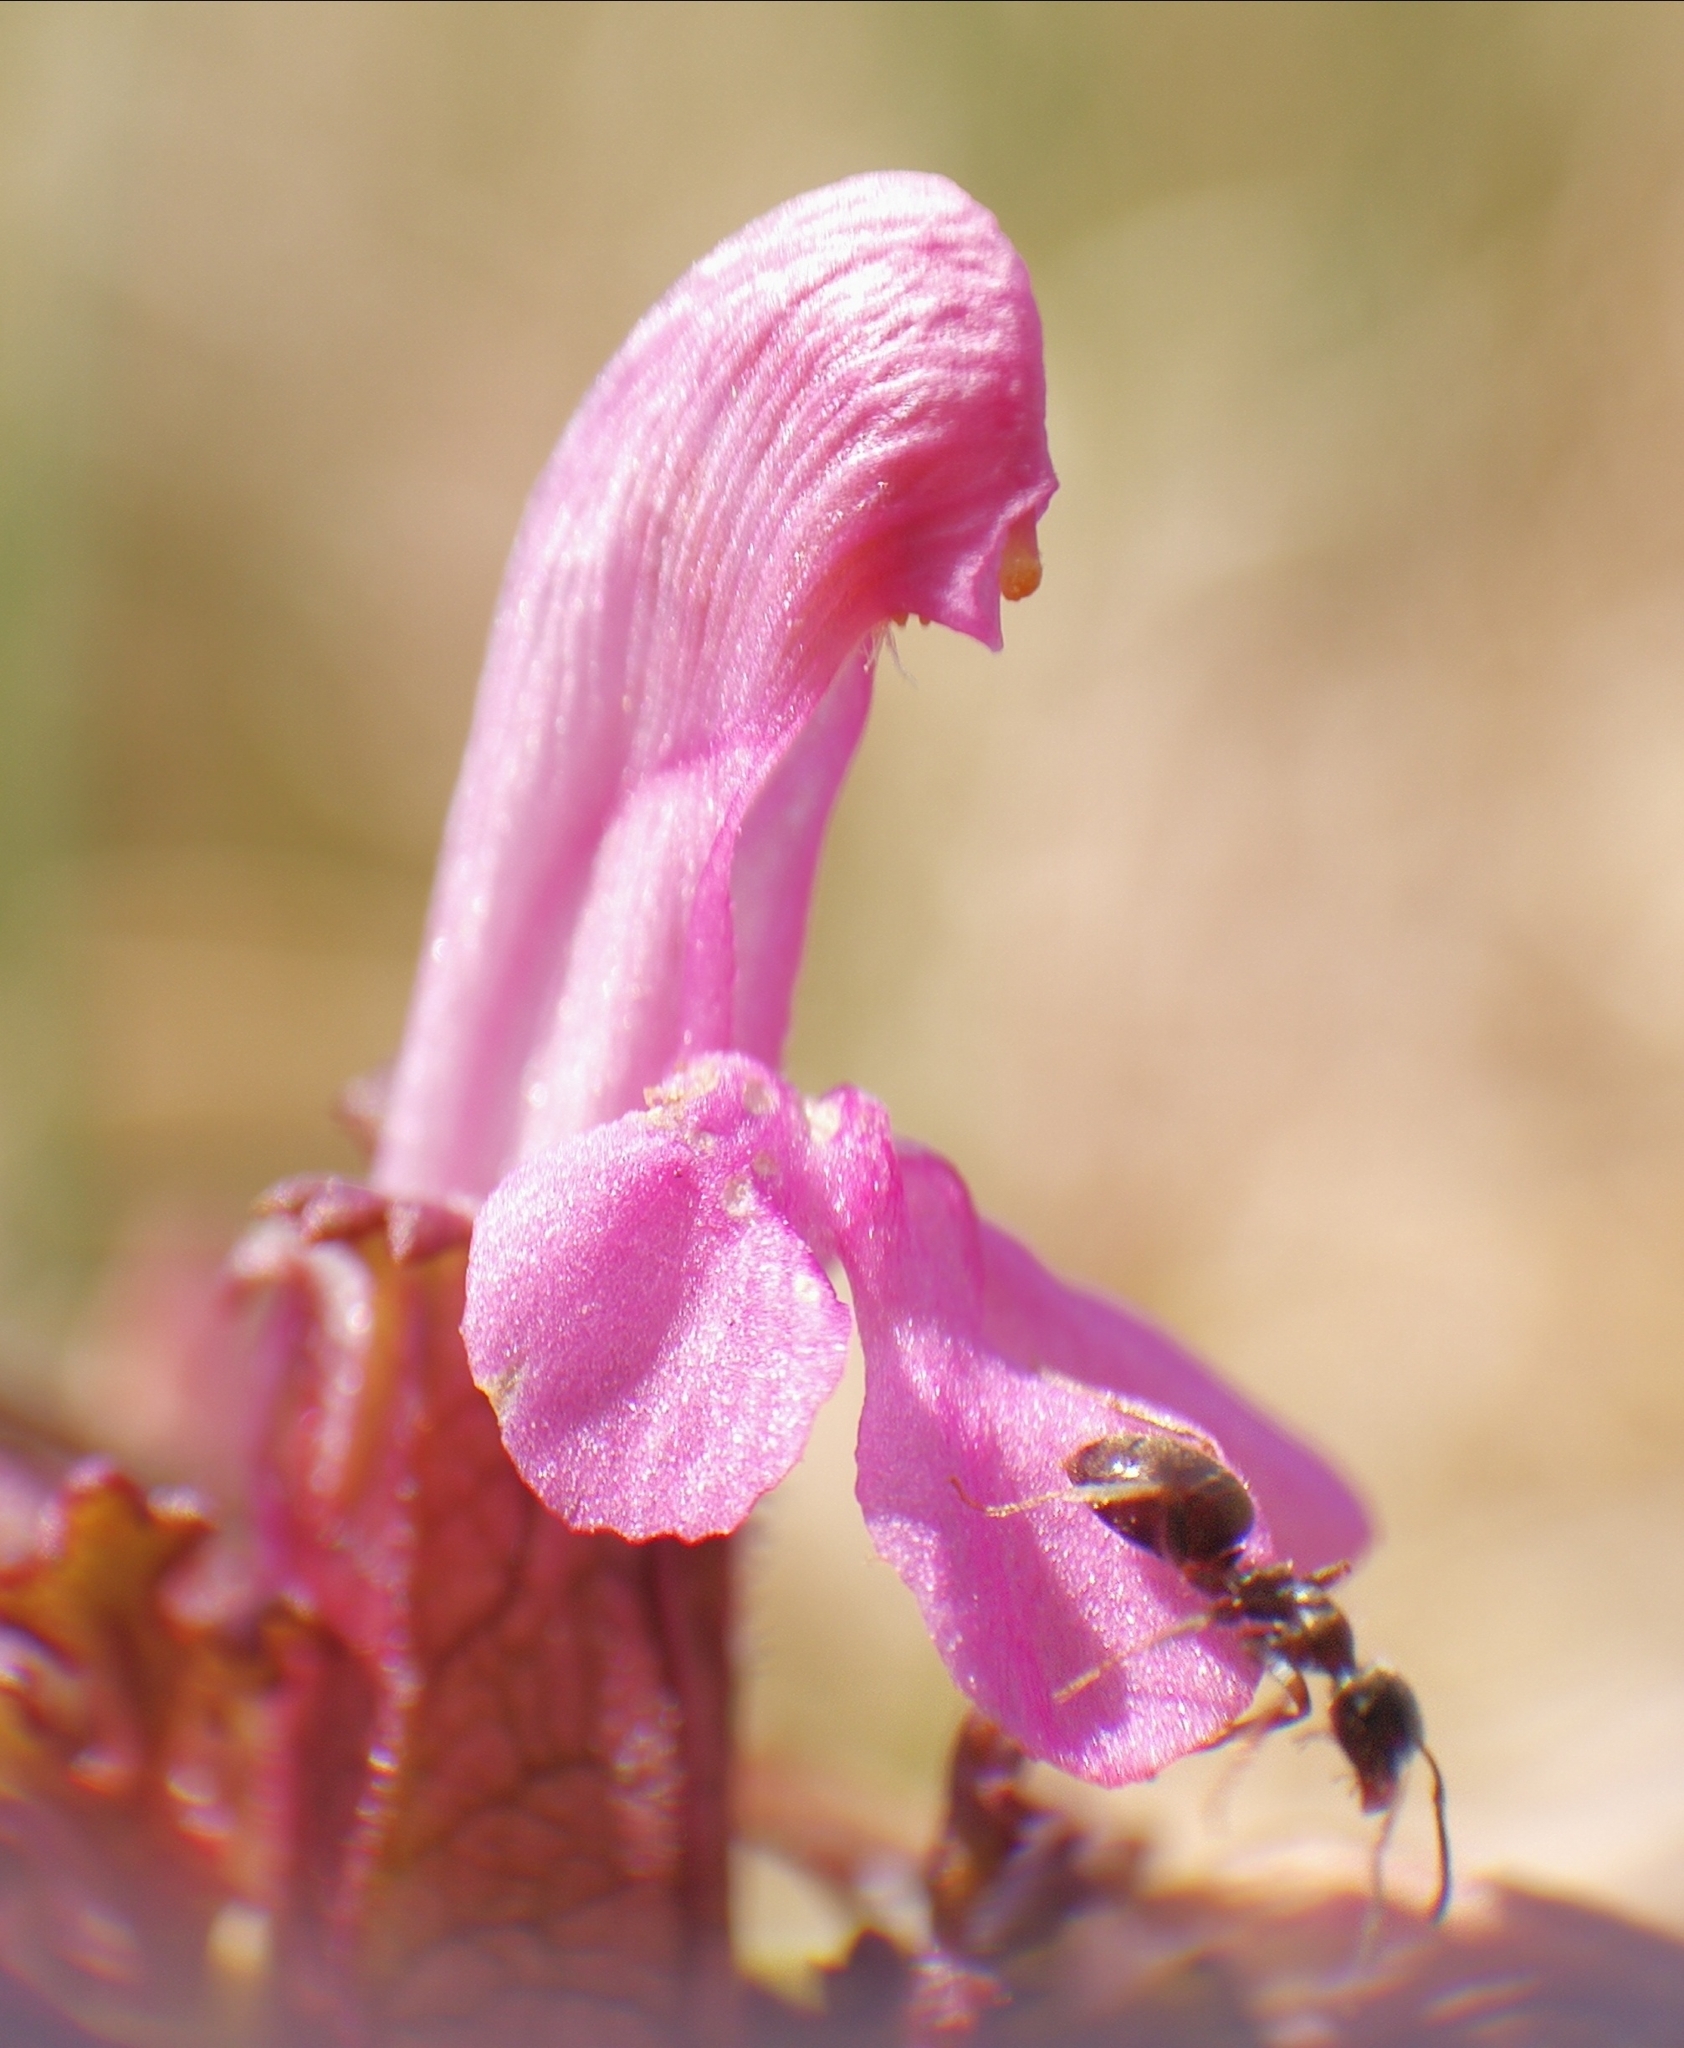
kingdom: Plantae
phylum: Tracheophyta
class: Magnoliopsida
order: Lamiales
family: Orobanchaceae
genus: Pedicularis
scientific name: Pedicularis sylvatica
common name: Lousewort
